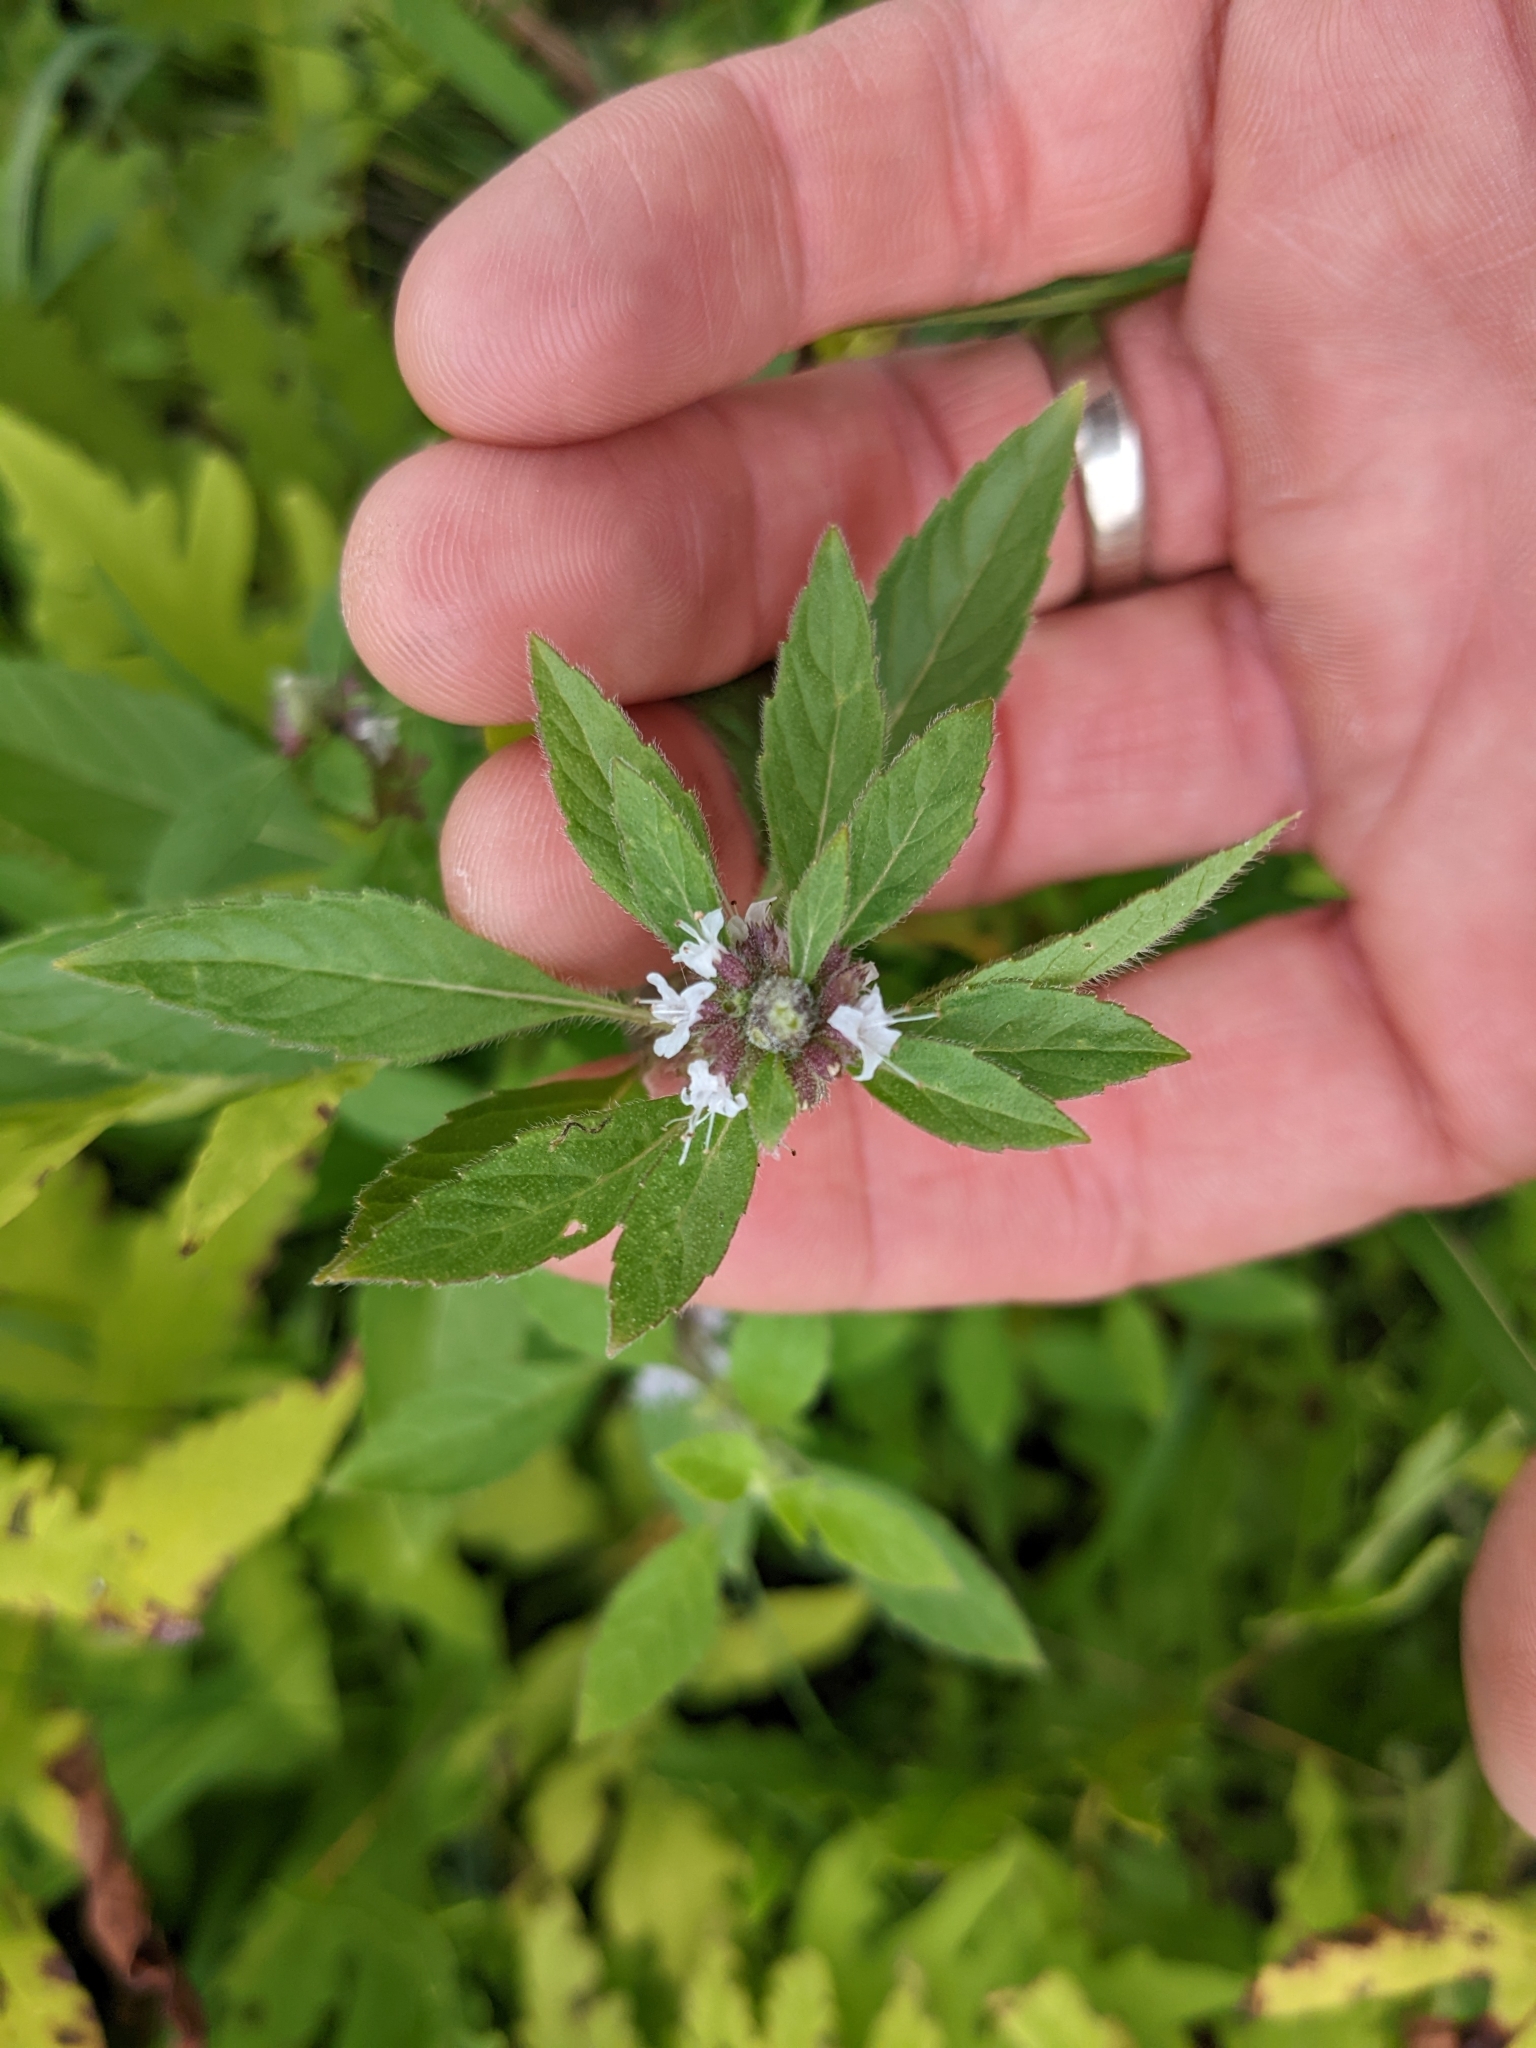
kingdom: Plantae
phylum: Tracheophyta
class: Magnoliopsida
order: Lamiales
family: Lamiaceae
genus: Mentha
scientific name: Mentha canadensis
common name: American corn mint
